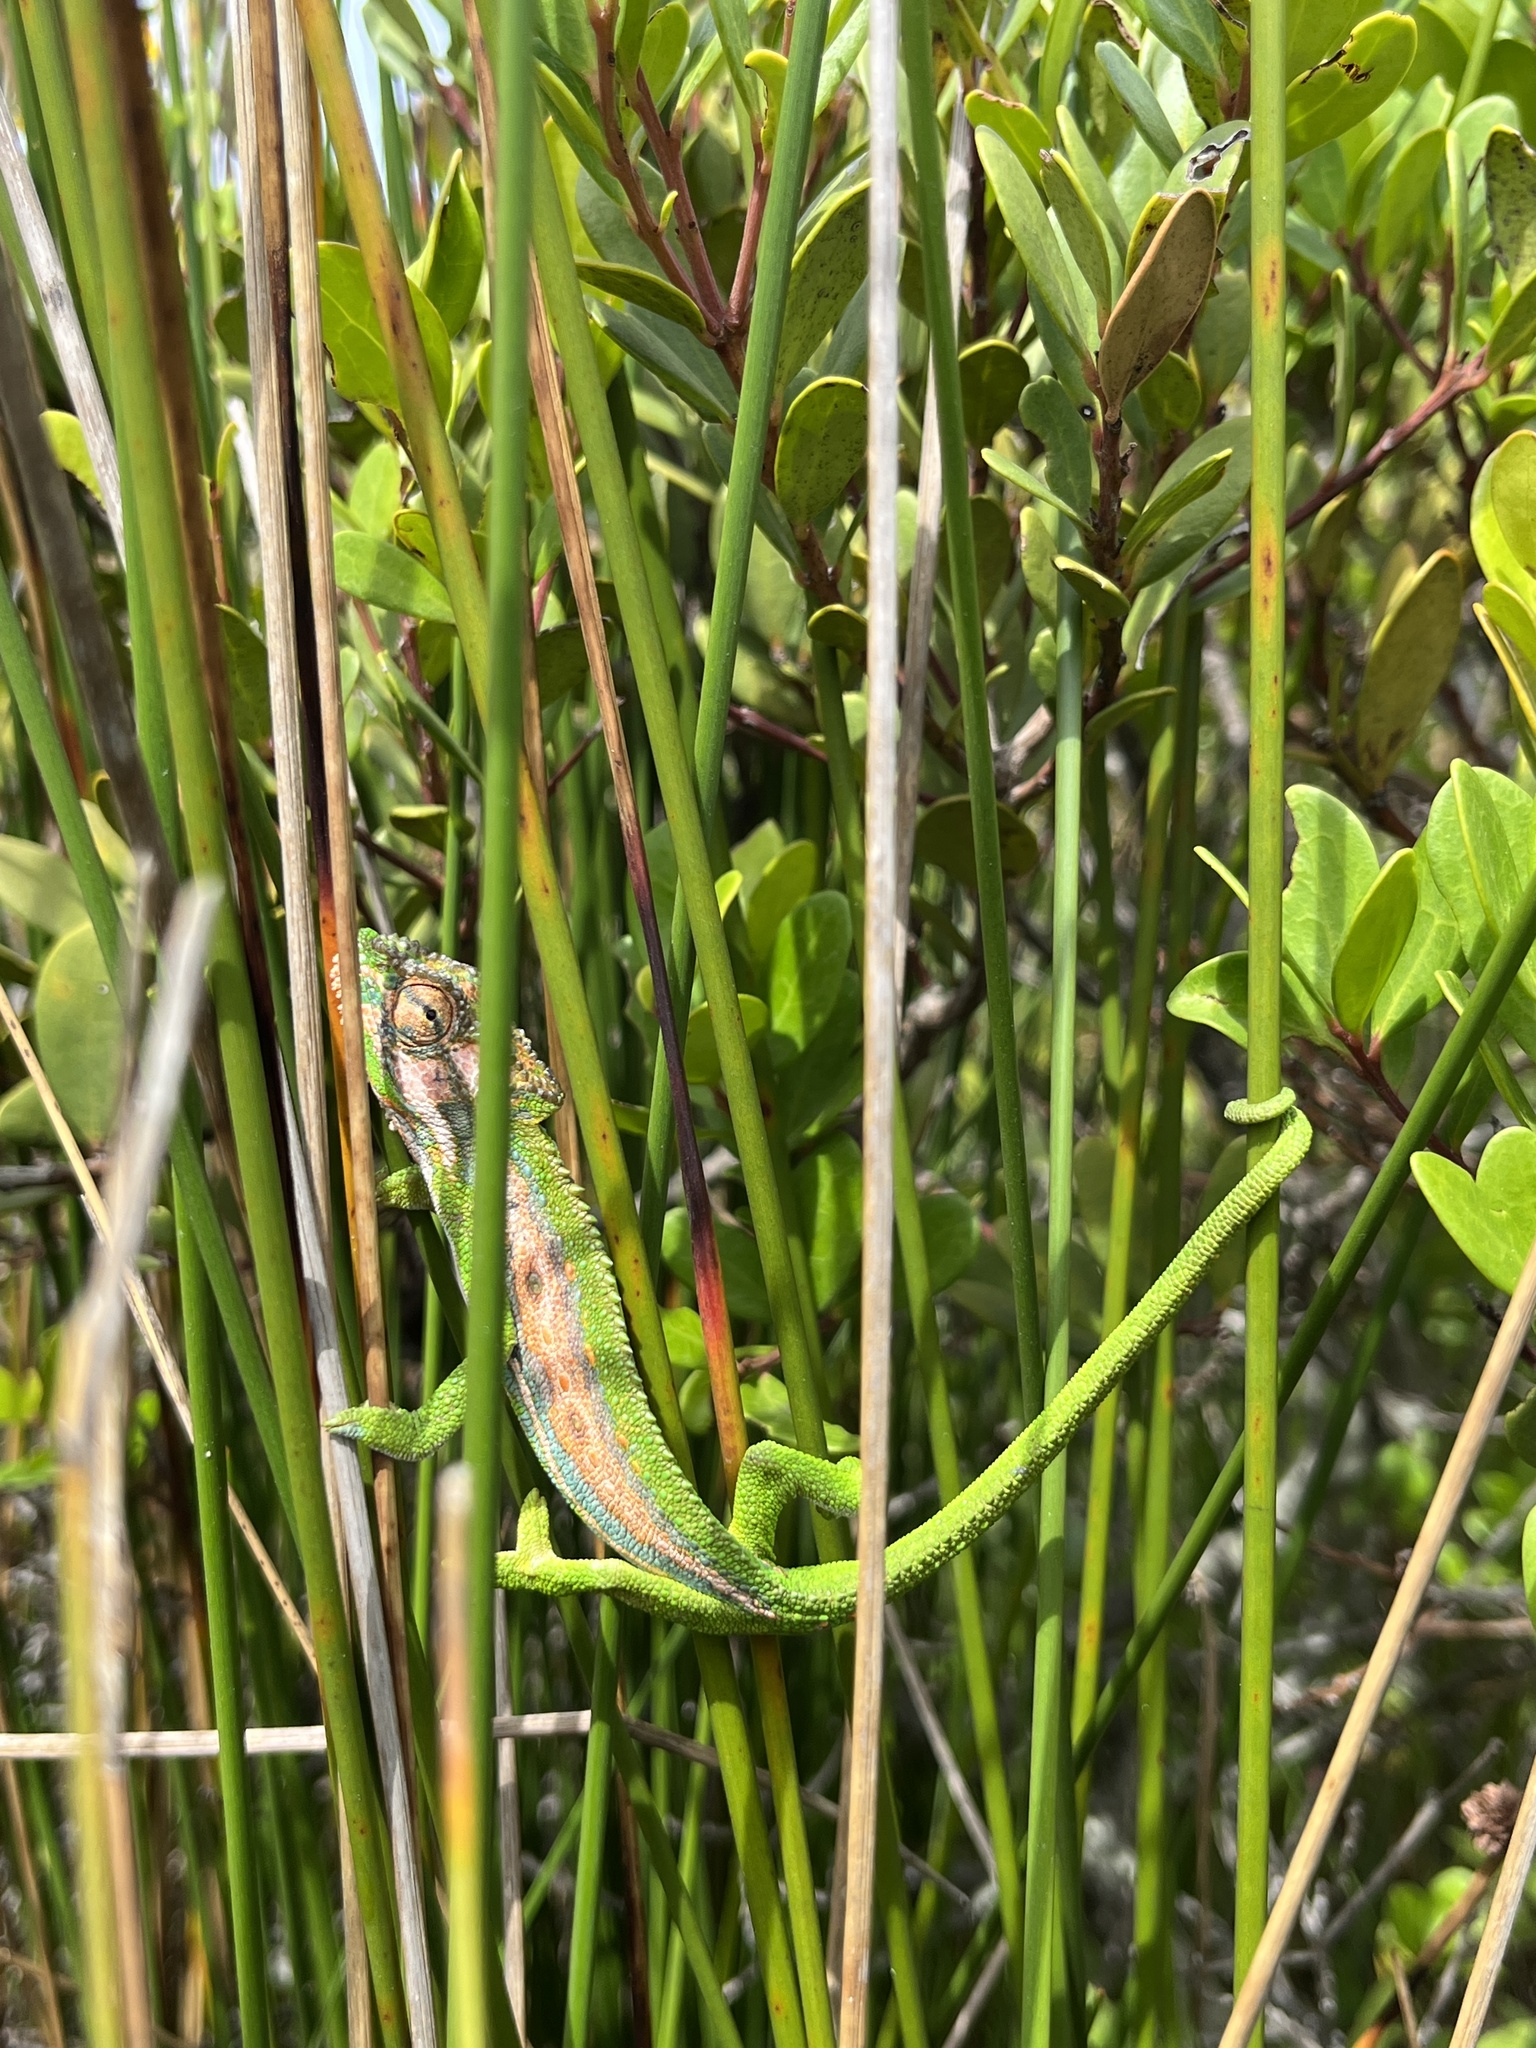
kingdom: Animalia
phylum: Chordata
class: Squamata
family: Chamaeleonidae
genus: Bradypodion
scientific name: Bradypodion pumilum
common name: Cape dwarf chameleon
